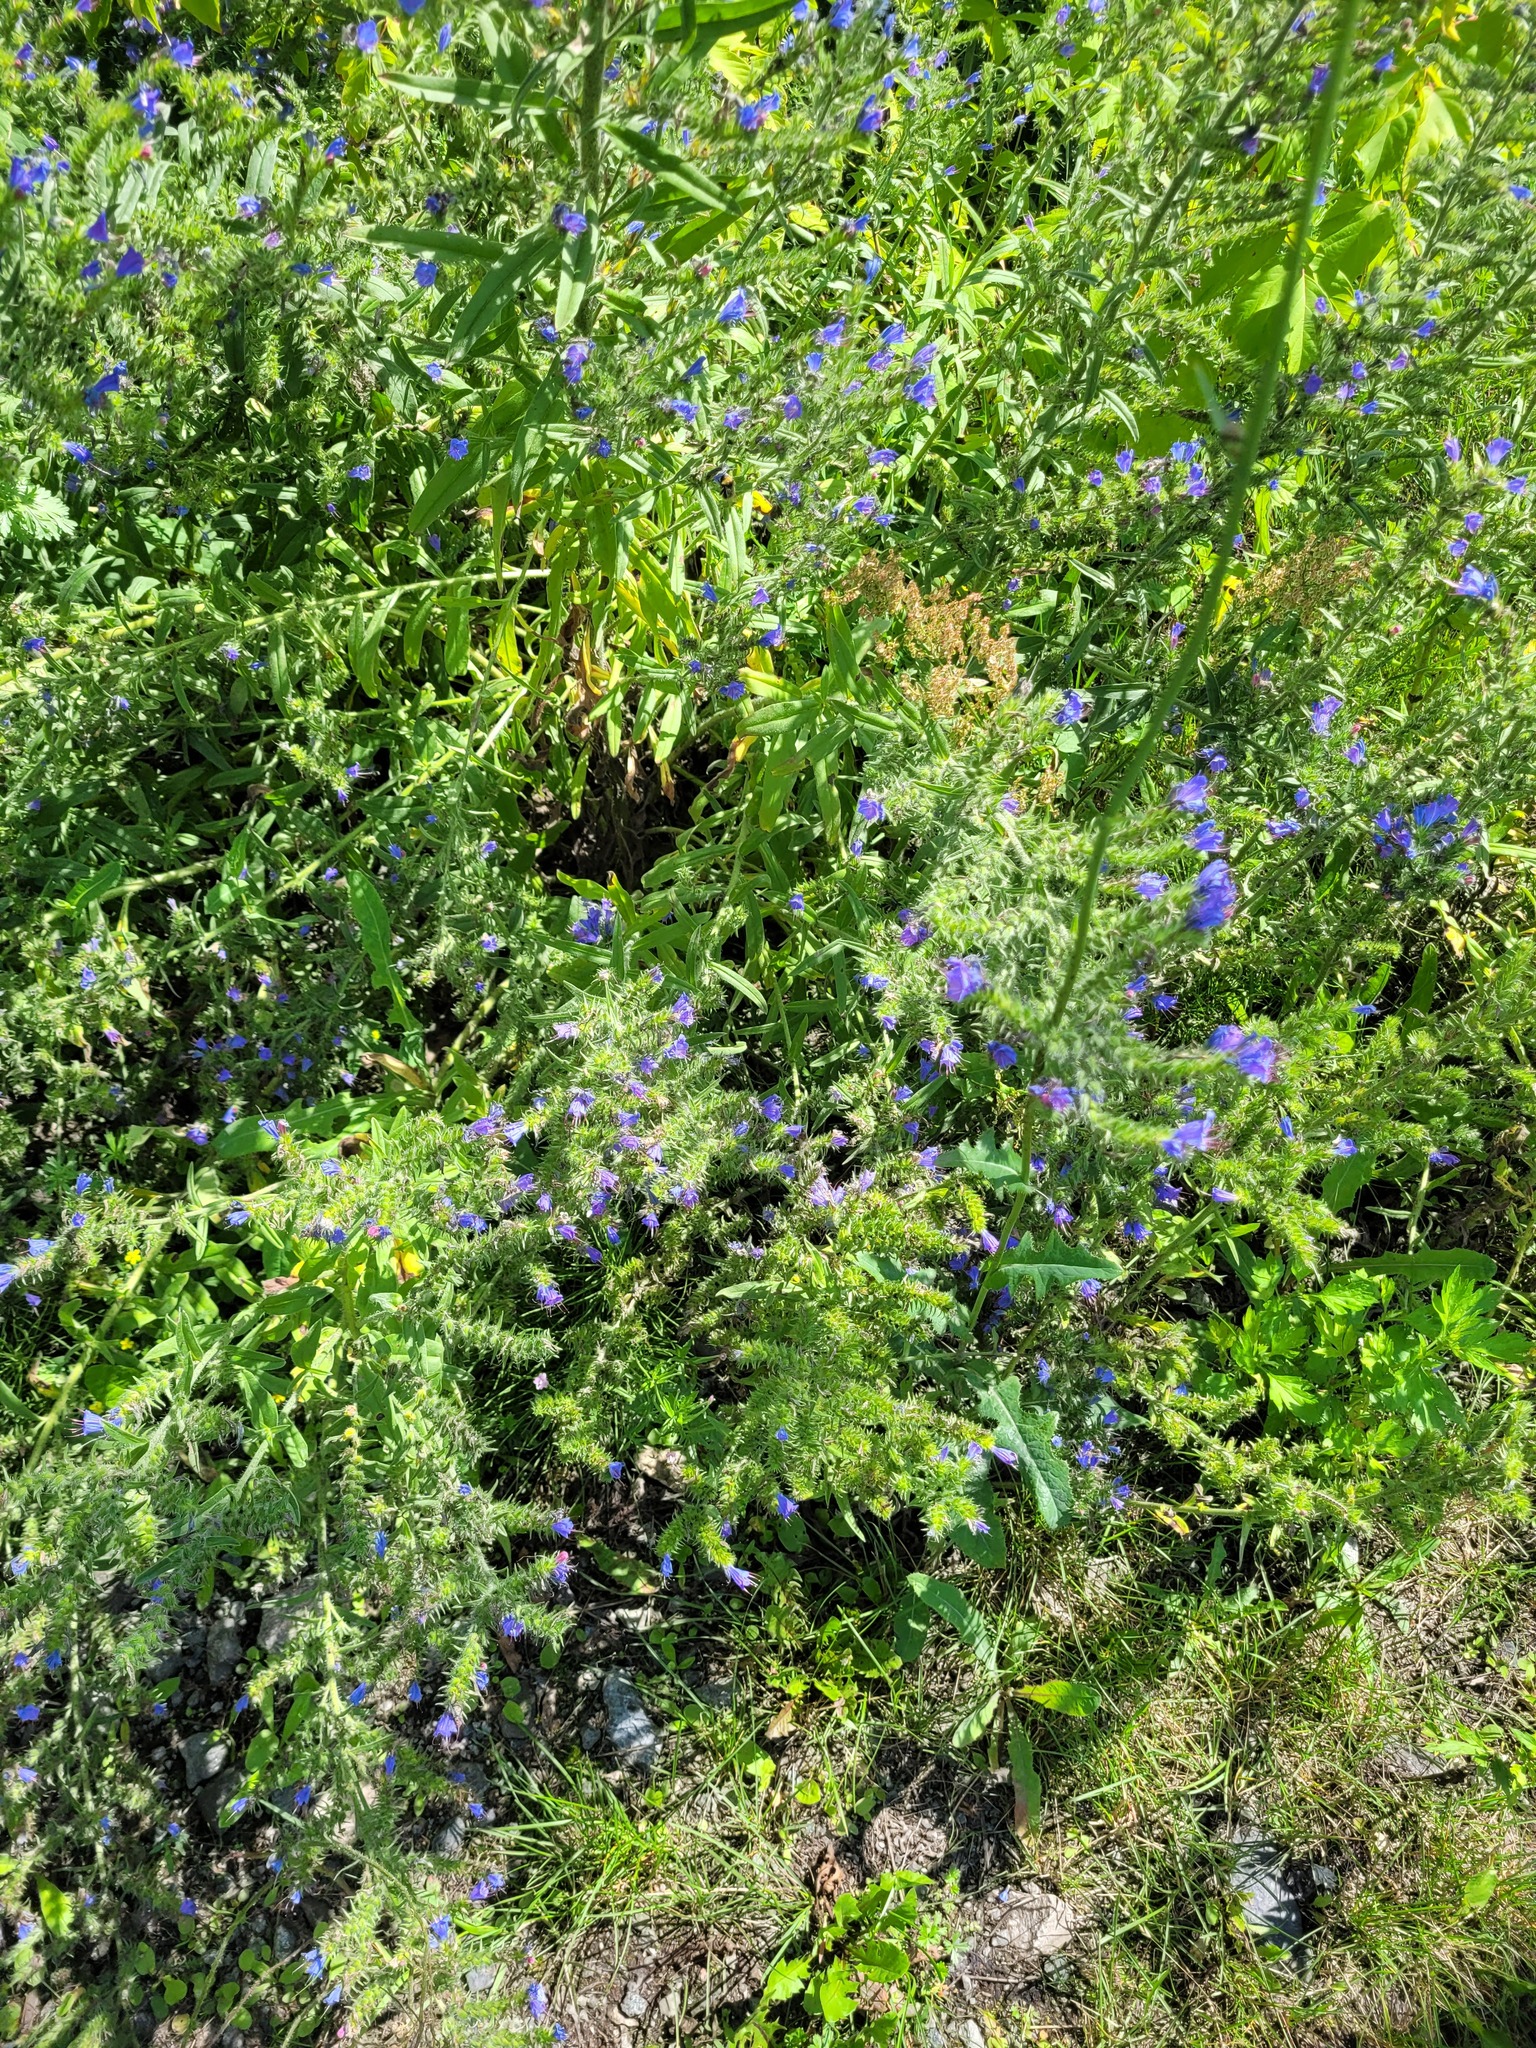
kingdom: Plantae
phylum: Tracheophyta
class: Magnoliopsida
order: Boraginales
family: Boraginaceae
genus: Echium
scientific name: Echium vulgare
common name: Common viper's bugloss
